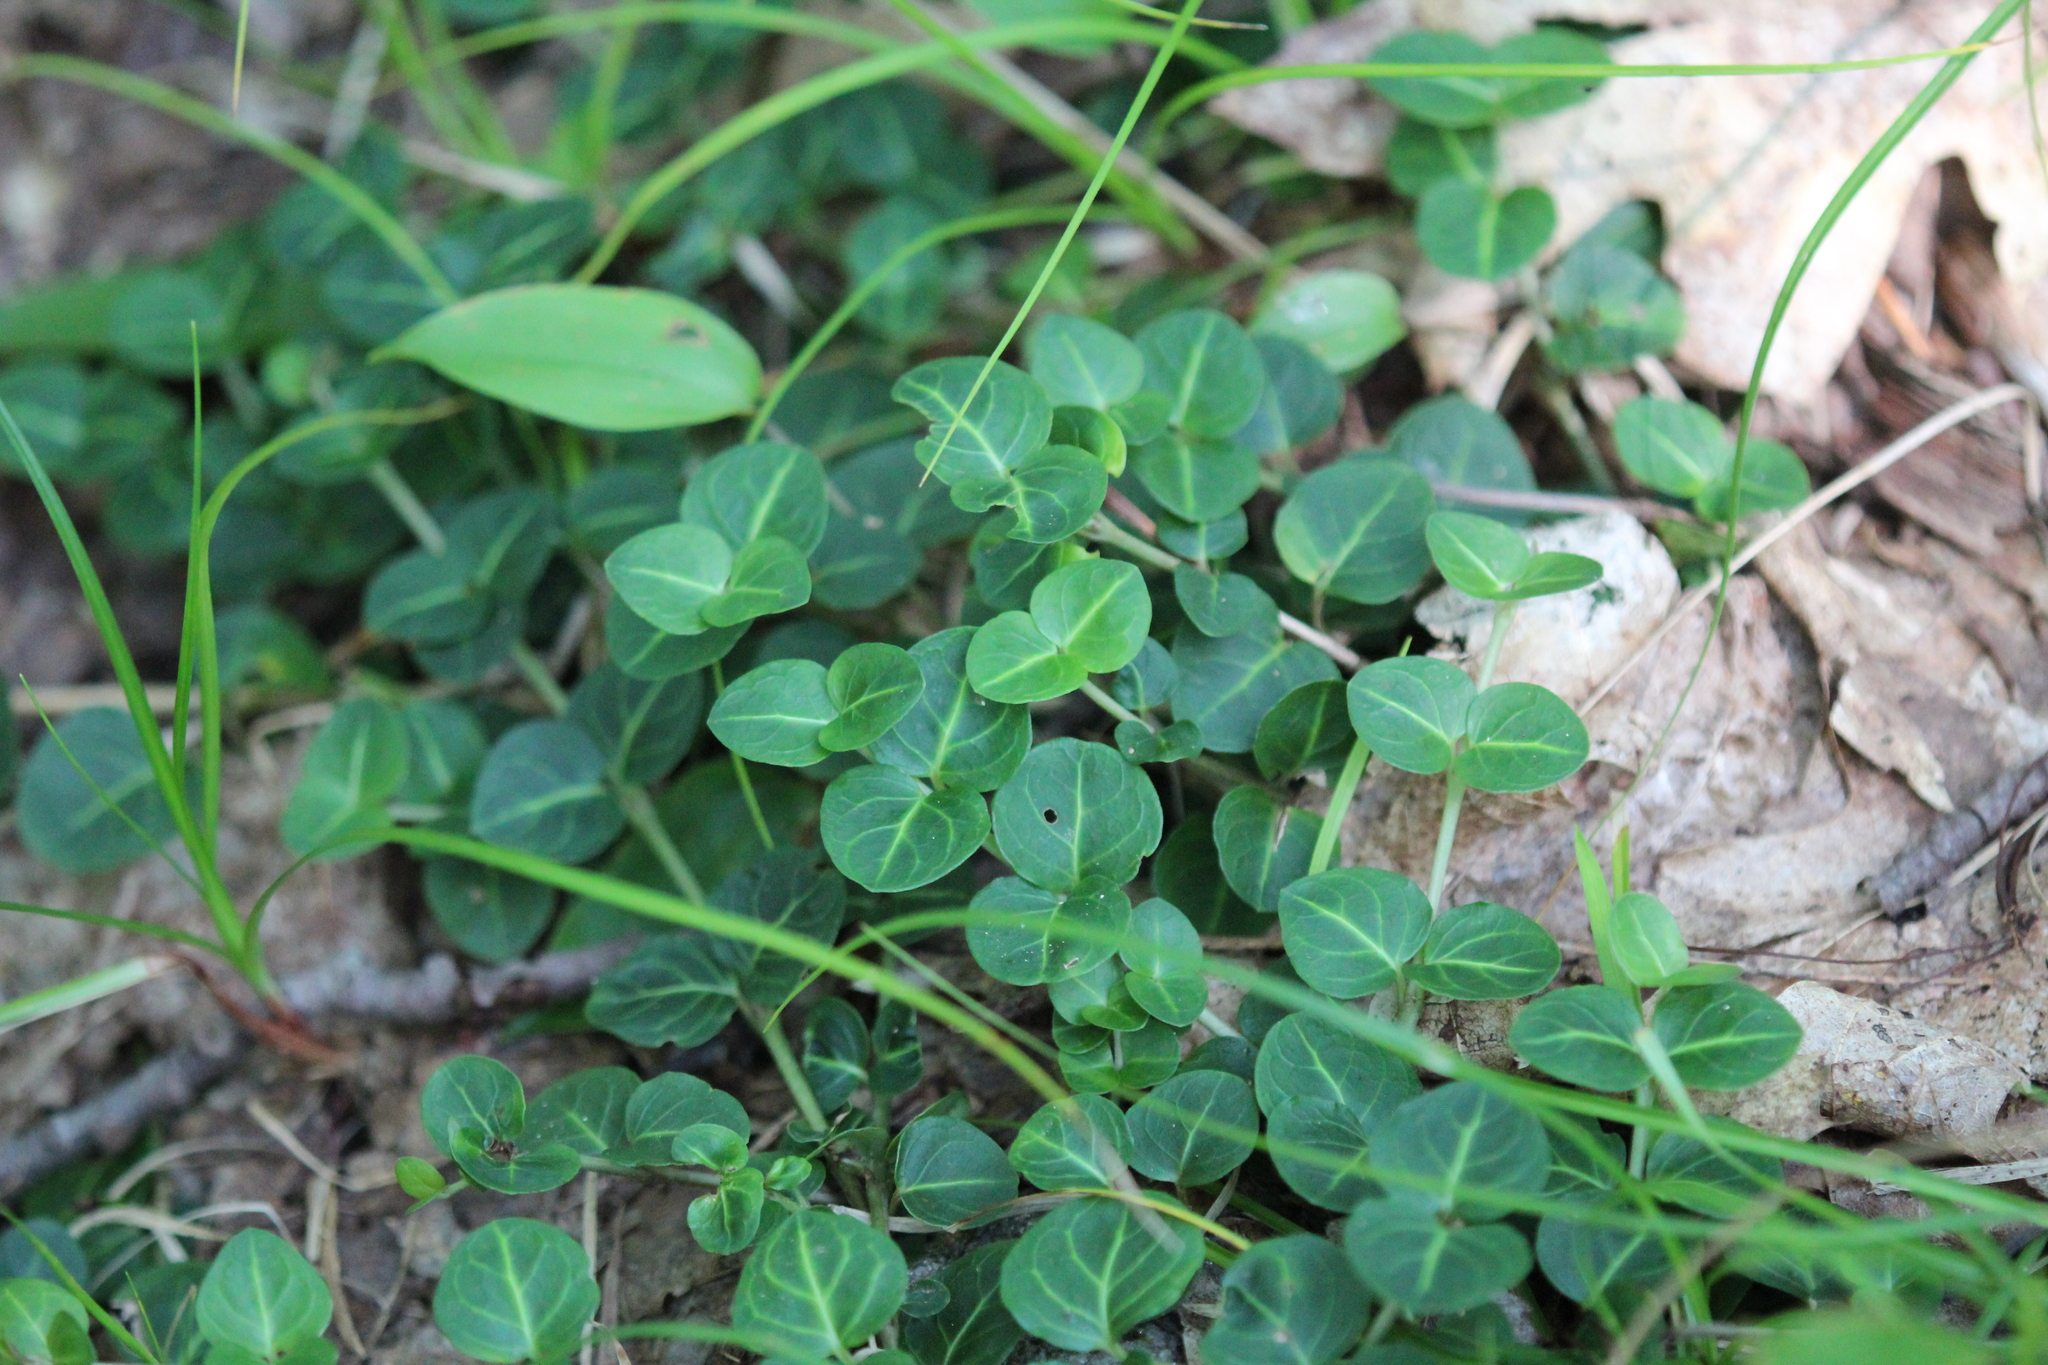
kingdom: Plantae
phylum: Tracheophyta
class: Magnoliopsida
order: Gentianales
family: Rubiaceae
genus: Mitchella
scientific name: Mitchella repens
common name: Partridge-berry
